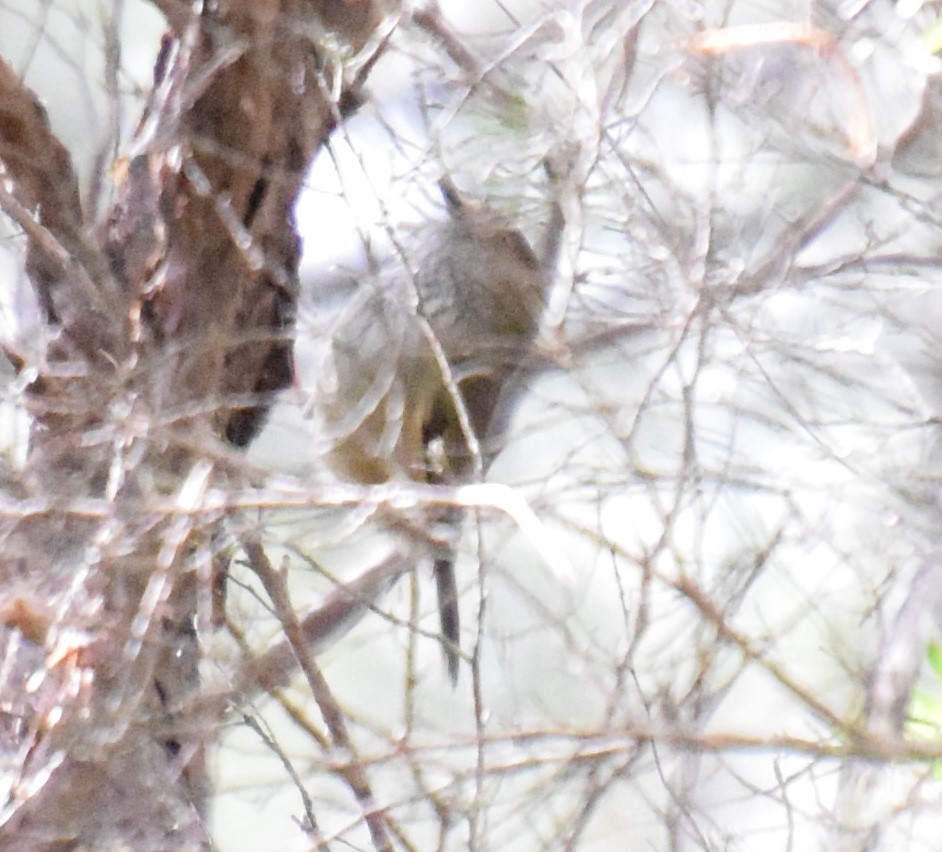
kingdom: Animalia
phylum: Chordata
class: Aves
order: Passeriformes
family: Acanthizidae
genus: Acanthiza
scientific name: Acanthiza pusilla
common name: Brown thornbill
